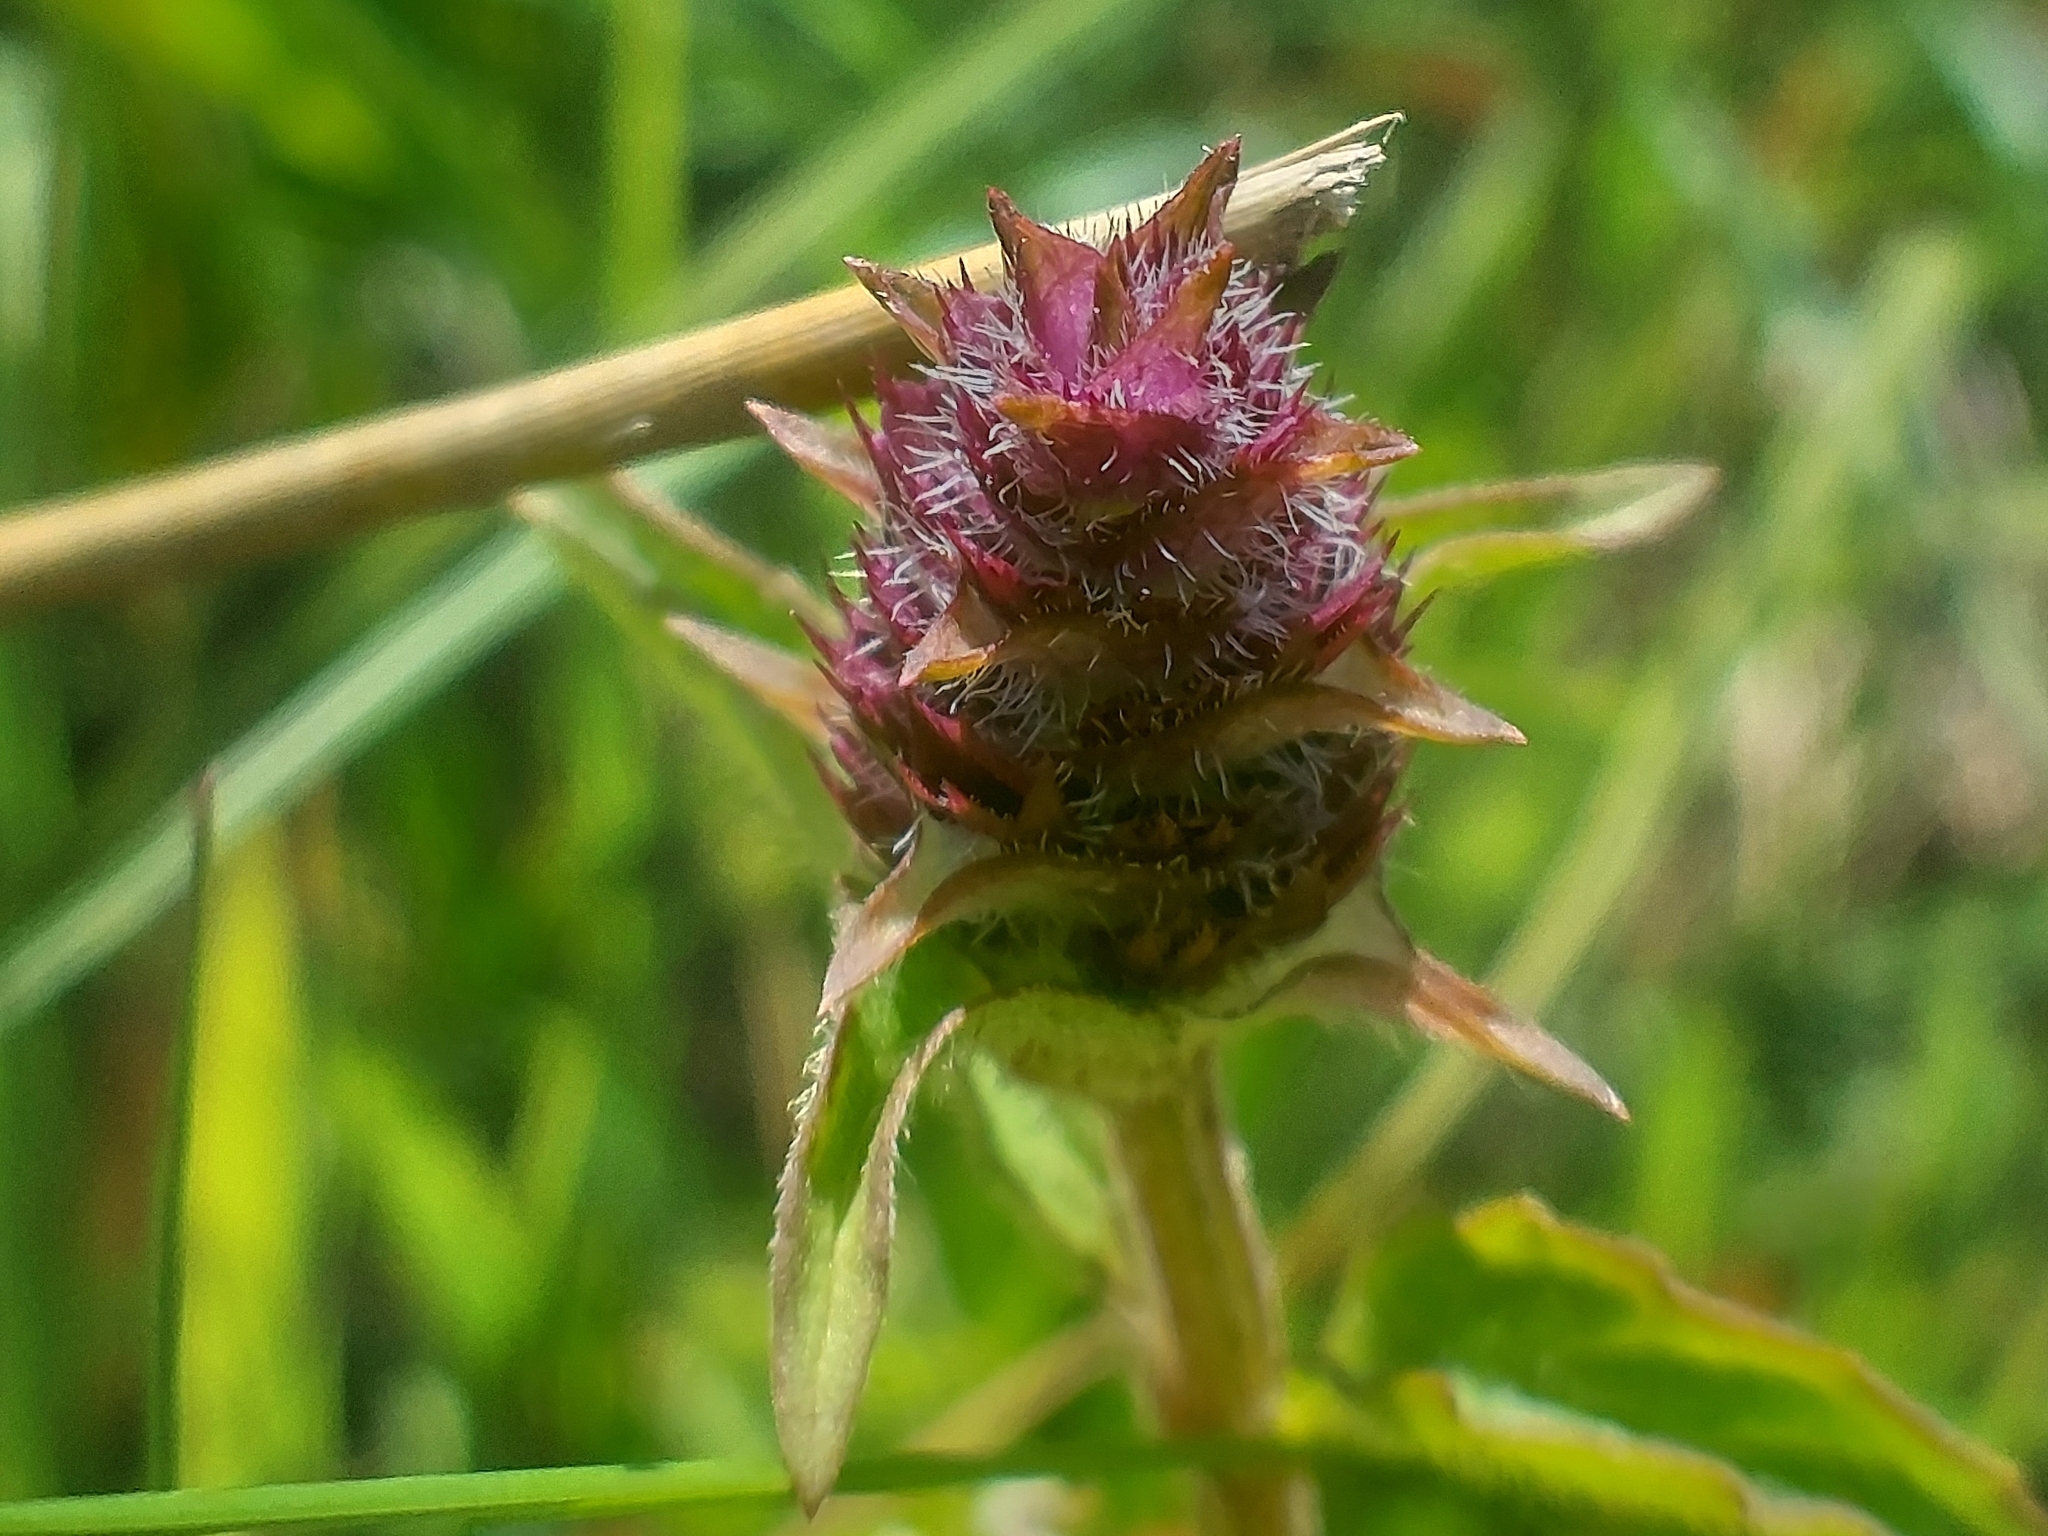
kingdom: Plantae
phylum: Tracheophyta
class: Magnoliopsida
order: Lamiales
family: Lamiaceae
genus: Prunella
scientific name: Prunella vulgaris
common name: Heal-all
